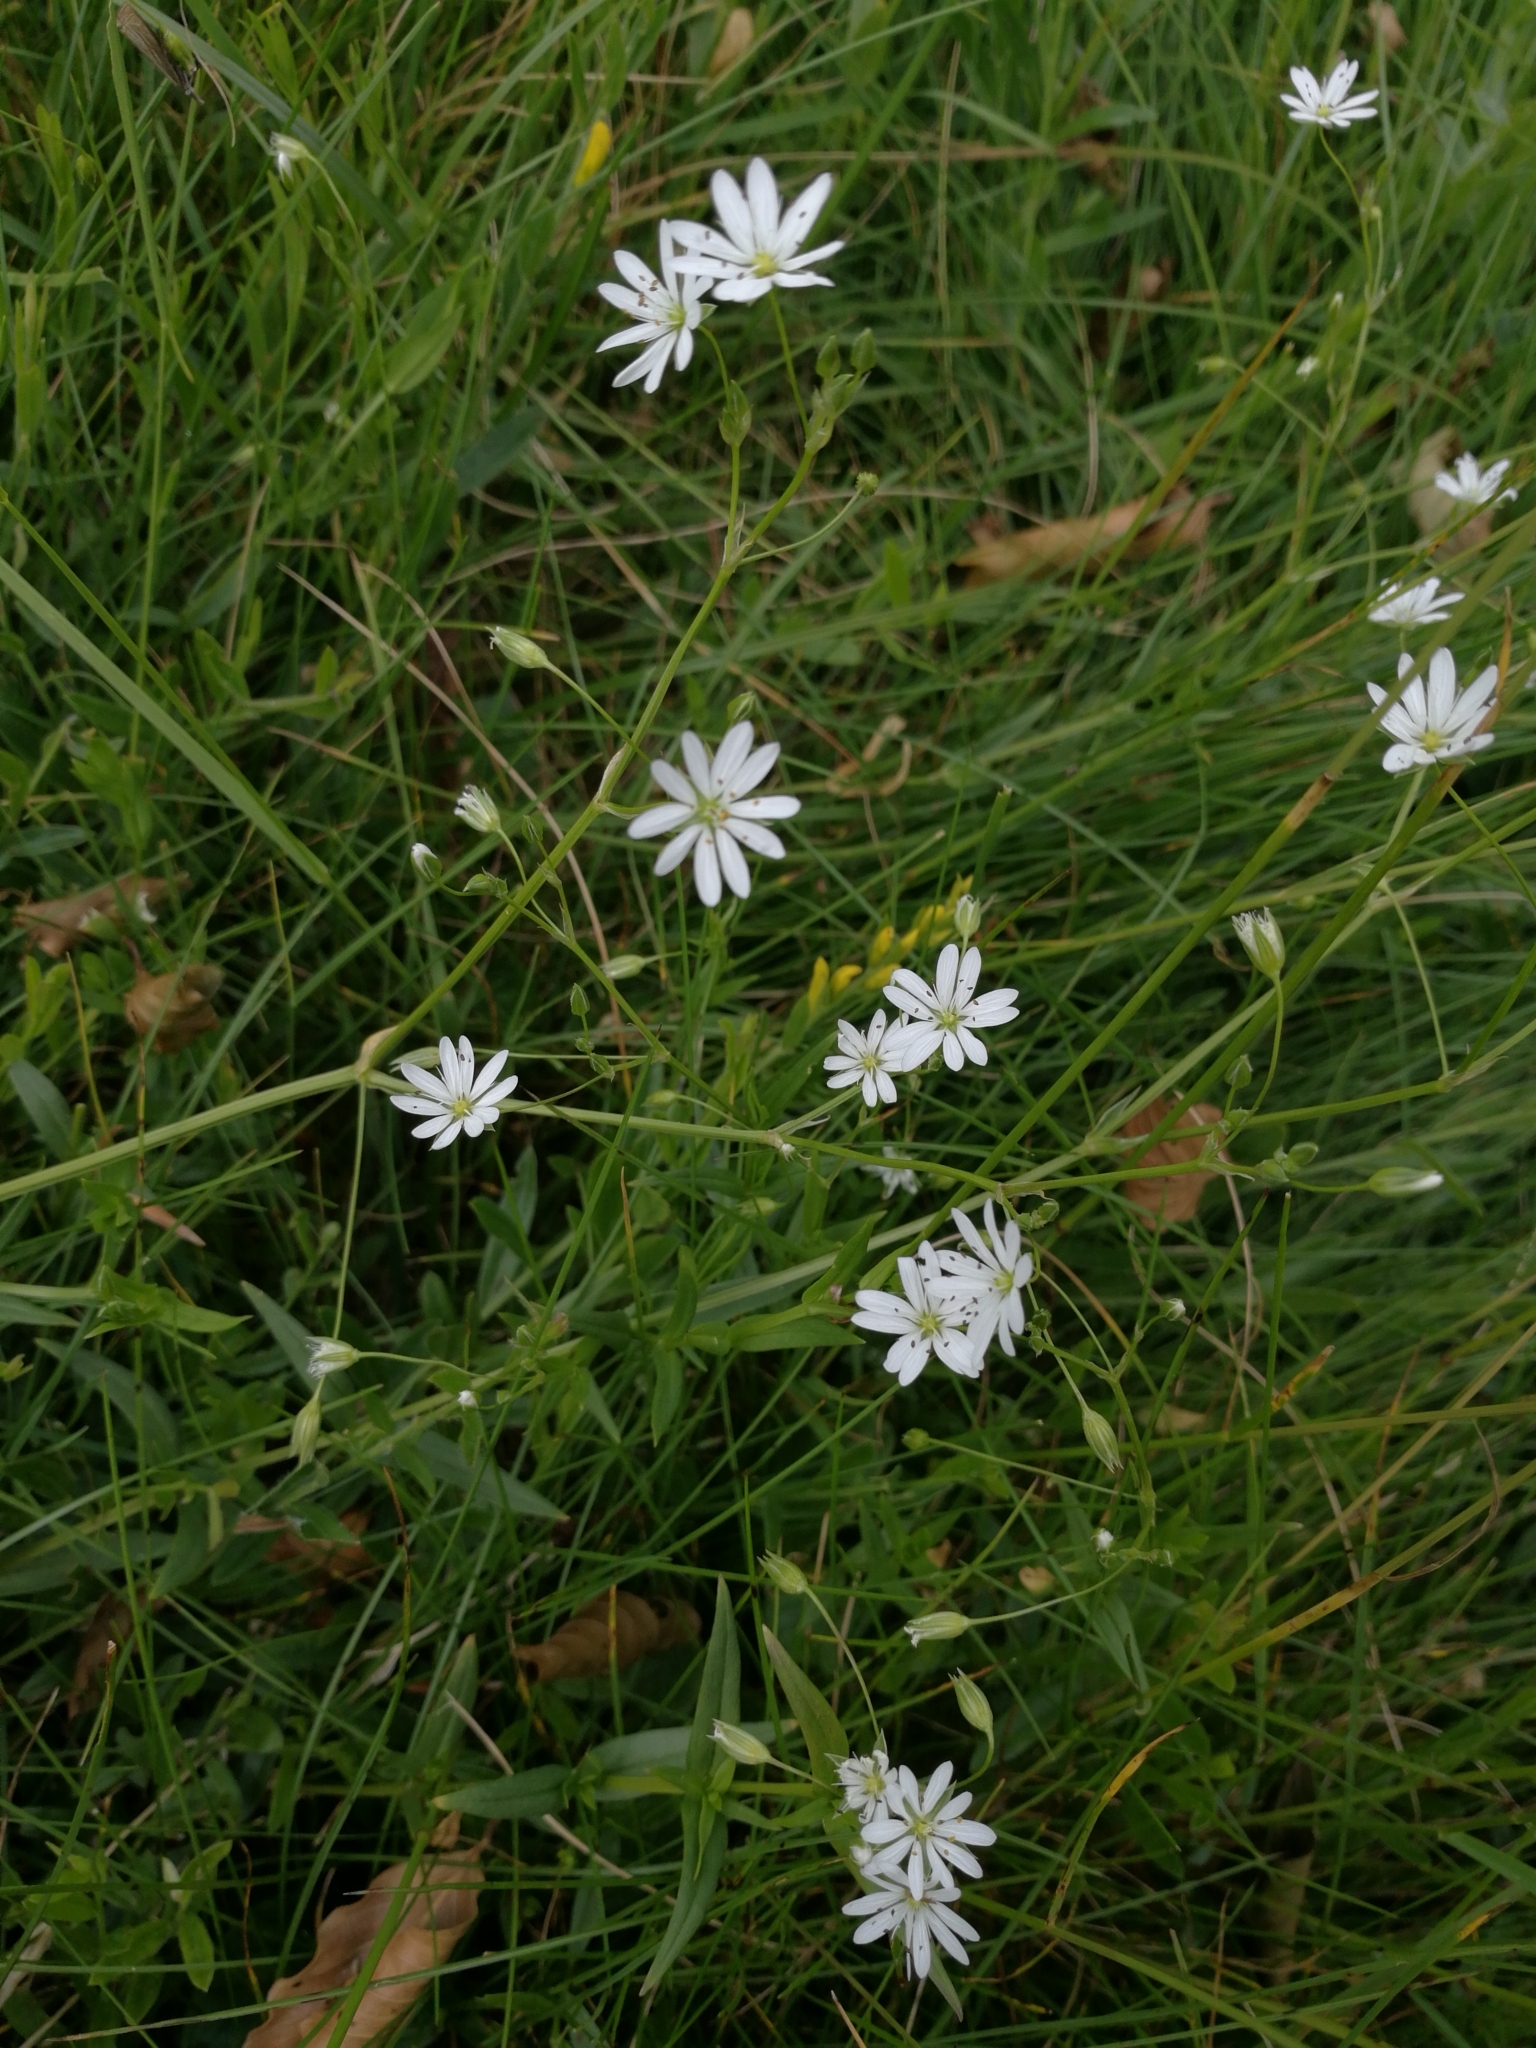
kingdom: Plantae
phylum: Tracheophyta
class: Magnoliopsida
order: Caryophyllales
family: Caryophyllaceae
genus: Rabelera
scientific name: Rabelera holostea
